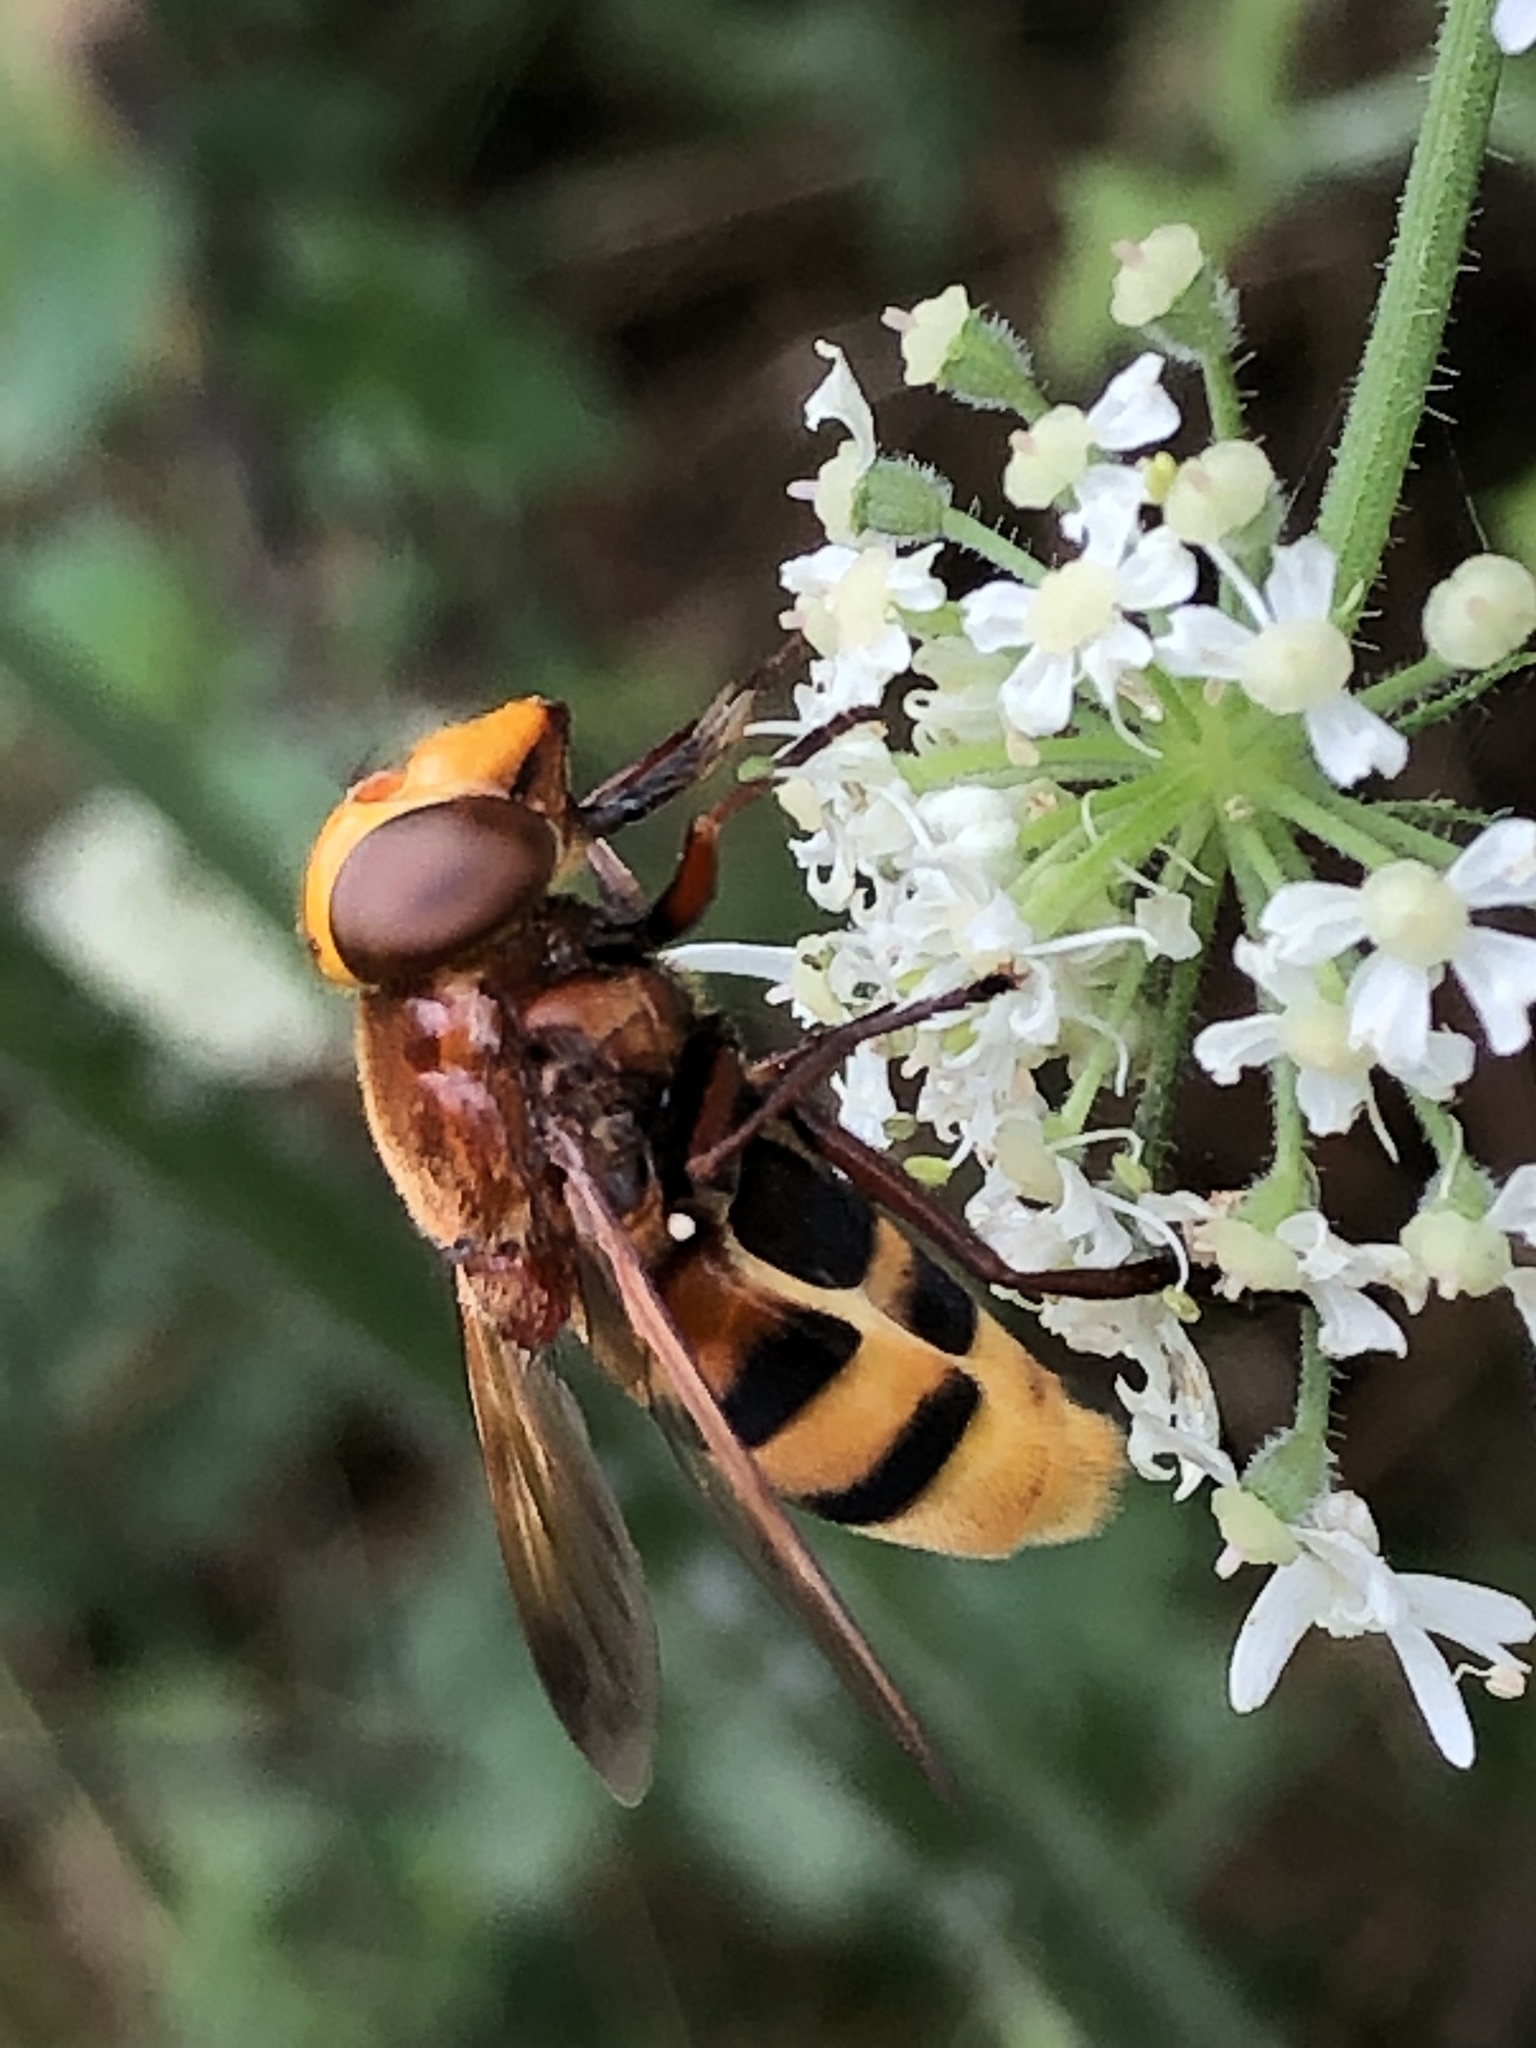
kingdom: Animalia
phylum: Arthropoda
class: Insecta
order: Diptera
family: Syrphidae
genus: Volucella
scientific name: Volucella zonaria
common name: Hornet hoverfly
